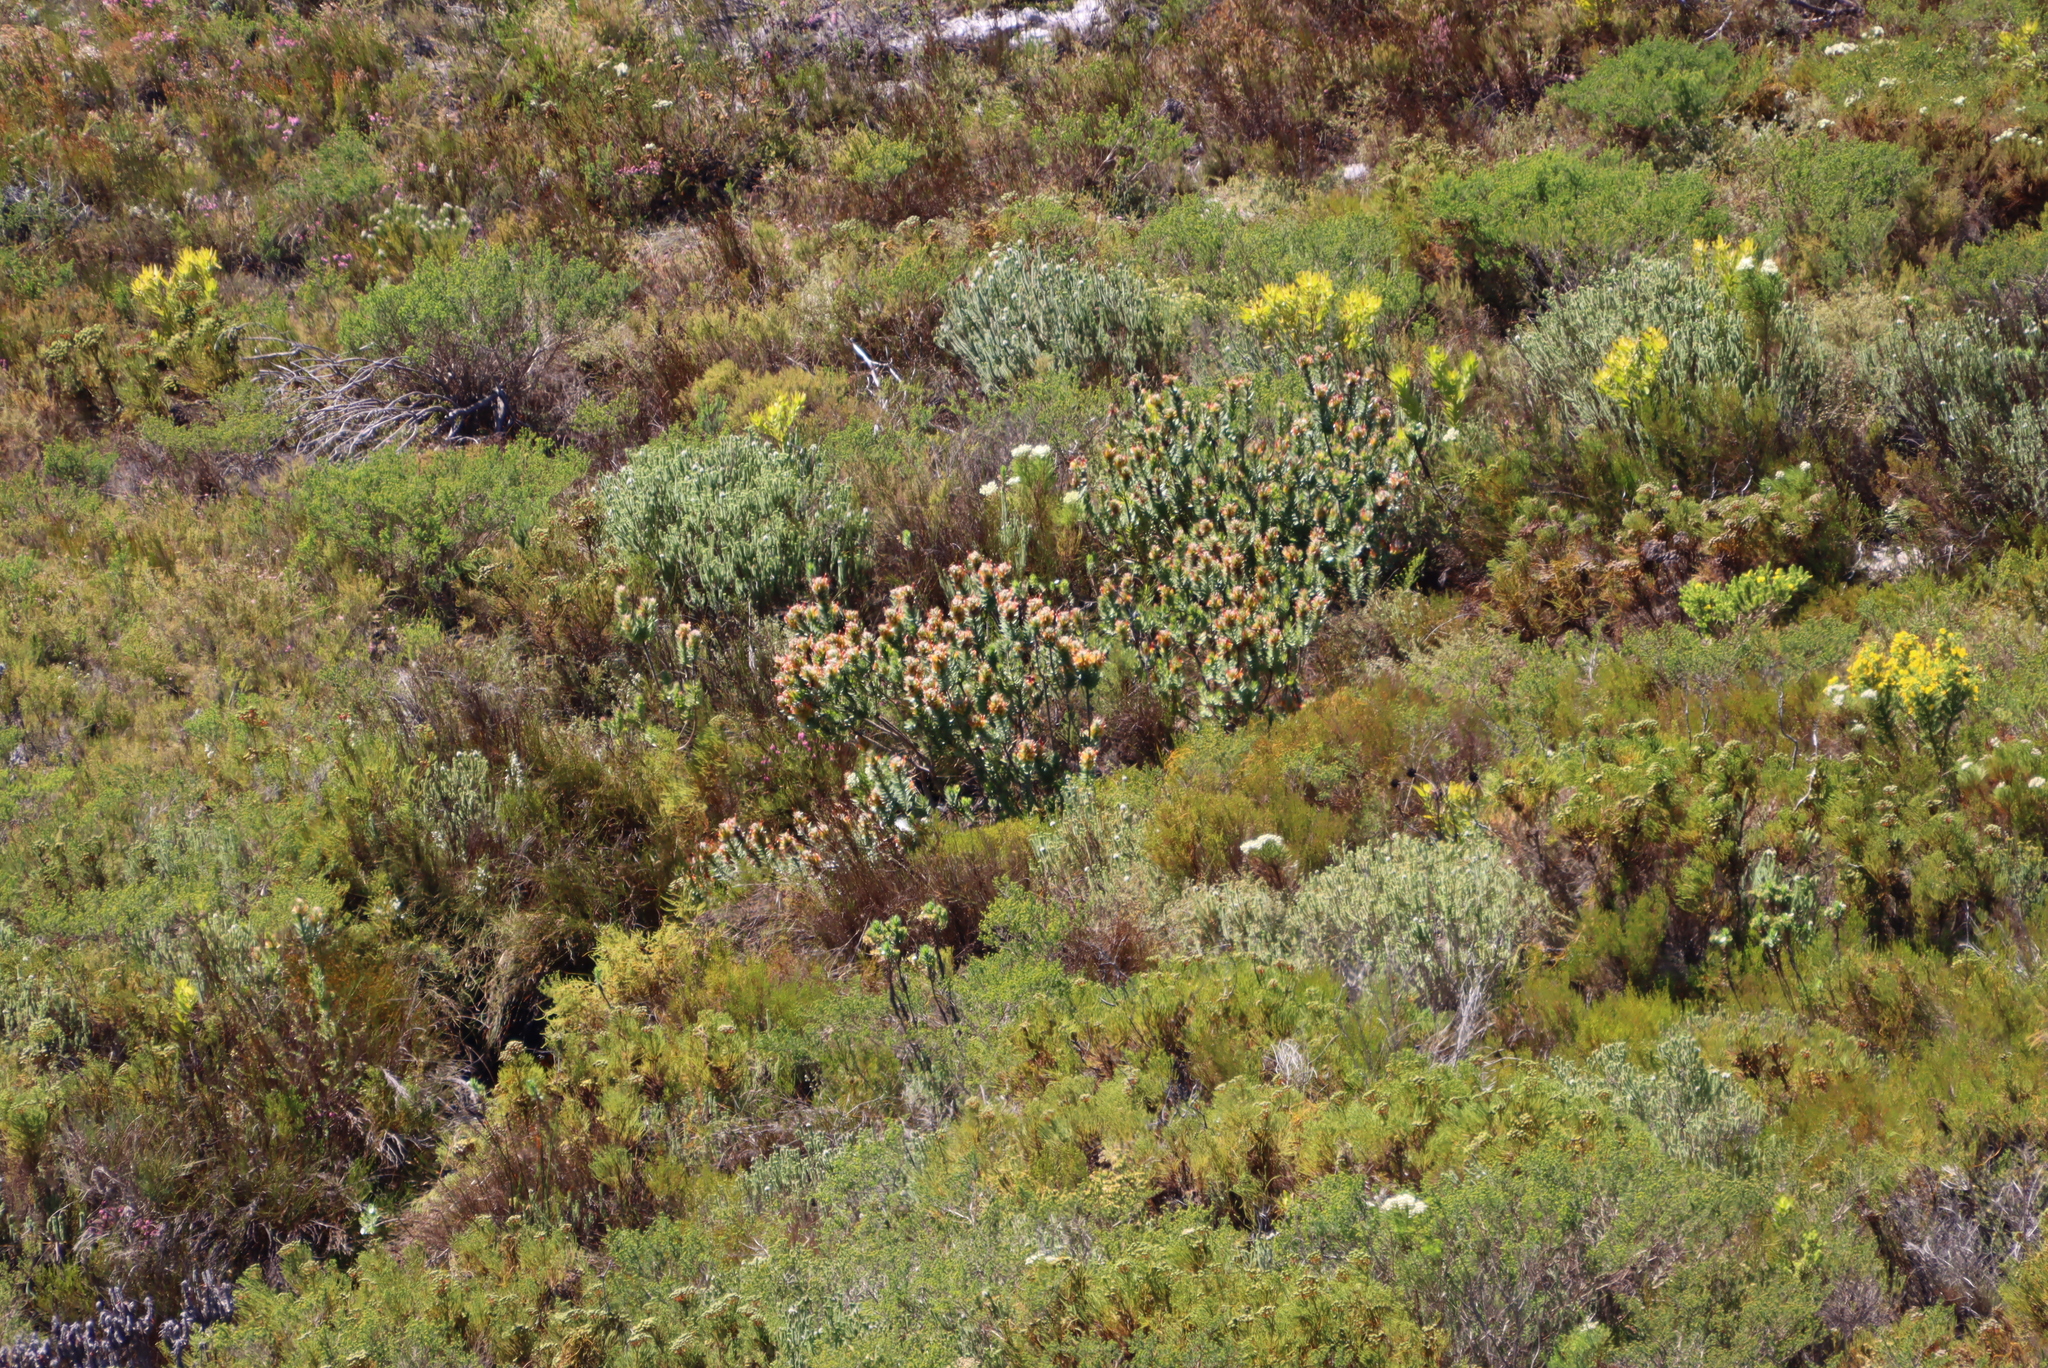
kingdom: Plantae
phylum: Tracheophyta
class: Magnoliopsida
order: Proteales
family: Proteaceae
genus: Mimetes
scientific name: Mimetes hirtus
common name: Marsh pagoda
